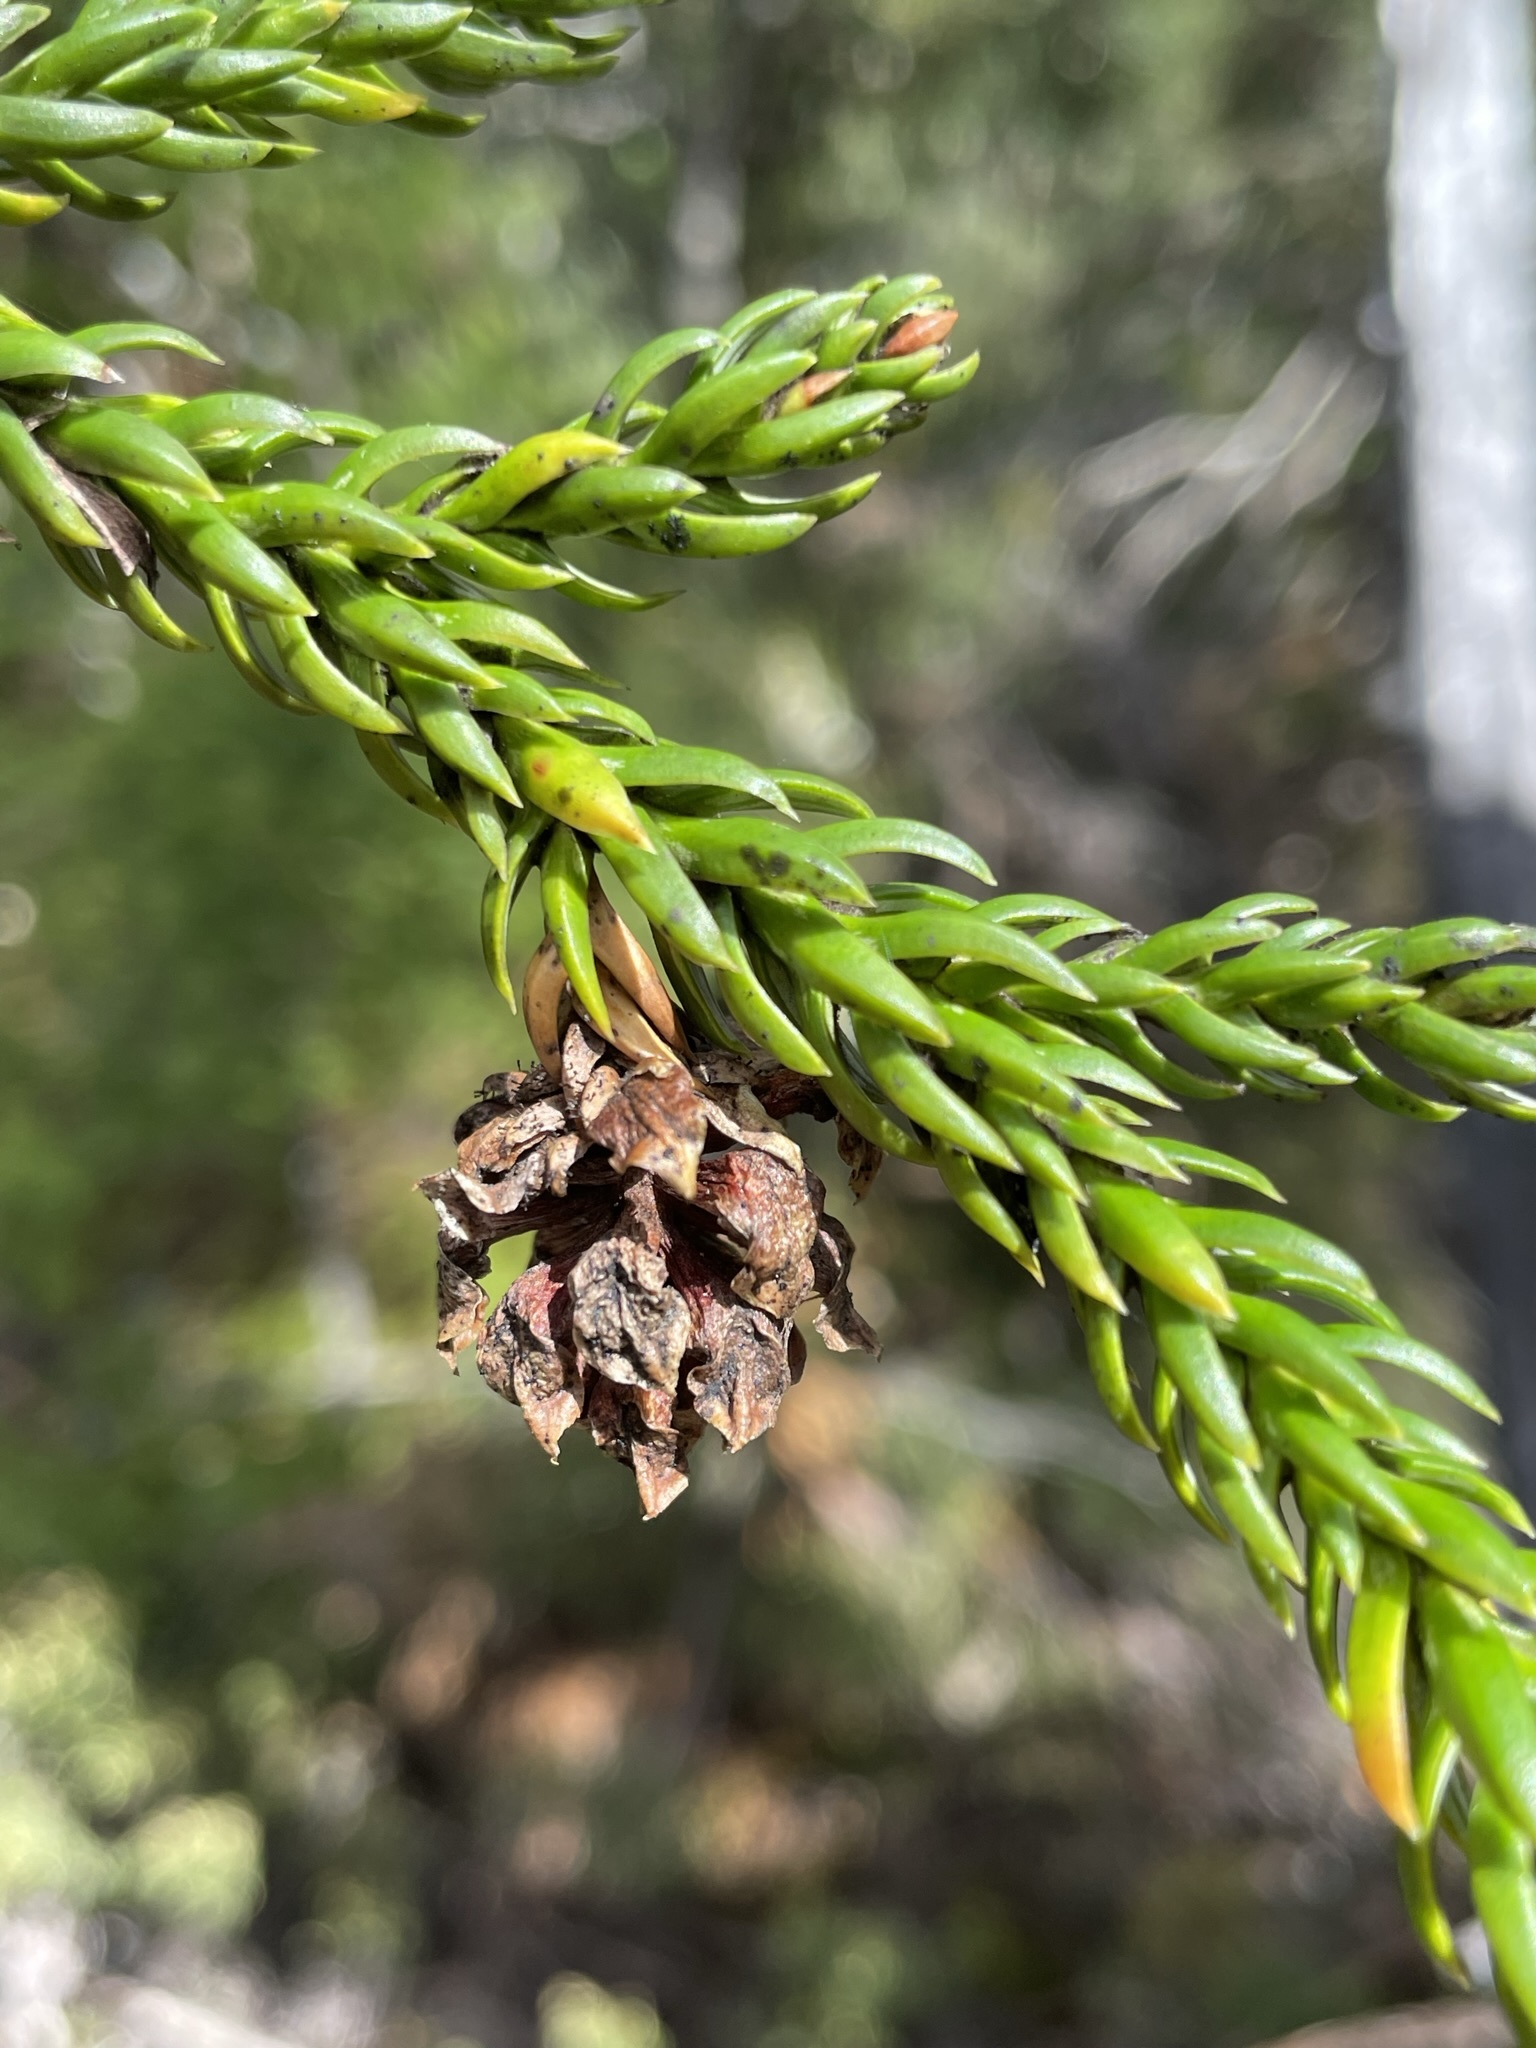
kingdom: Plantae
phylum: Tracheophyta
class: Pinopsida
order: Pinales
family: Cupressaceae
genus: Athrotaxis
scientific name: Athrotaxis selaginoides
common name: King william pine
